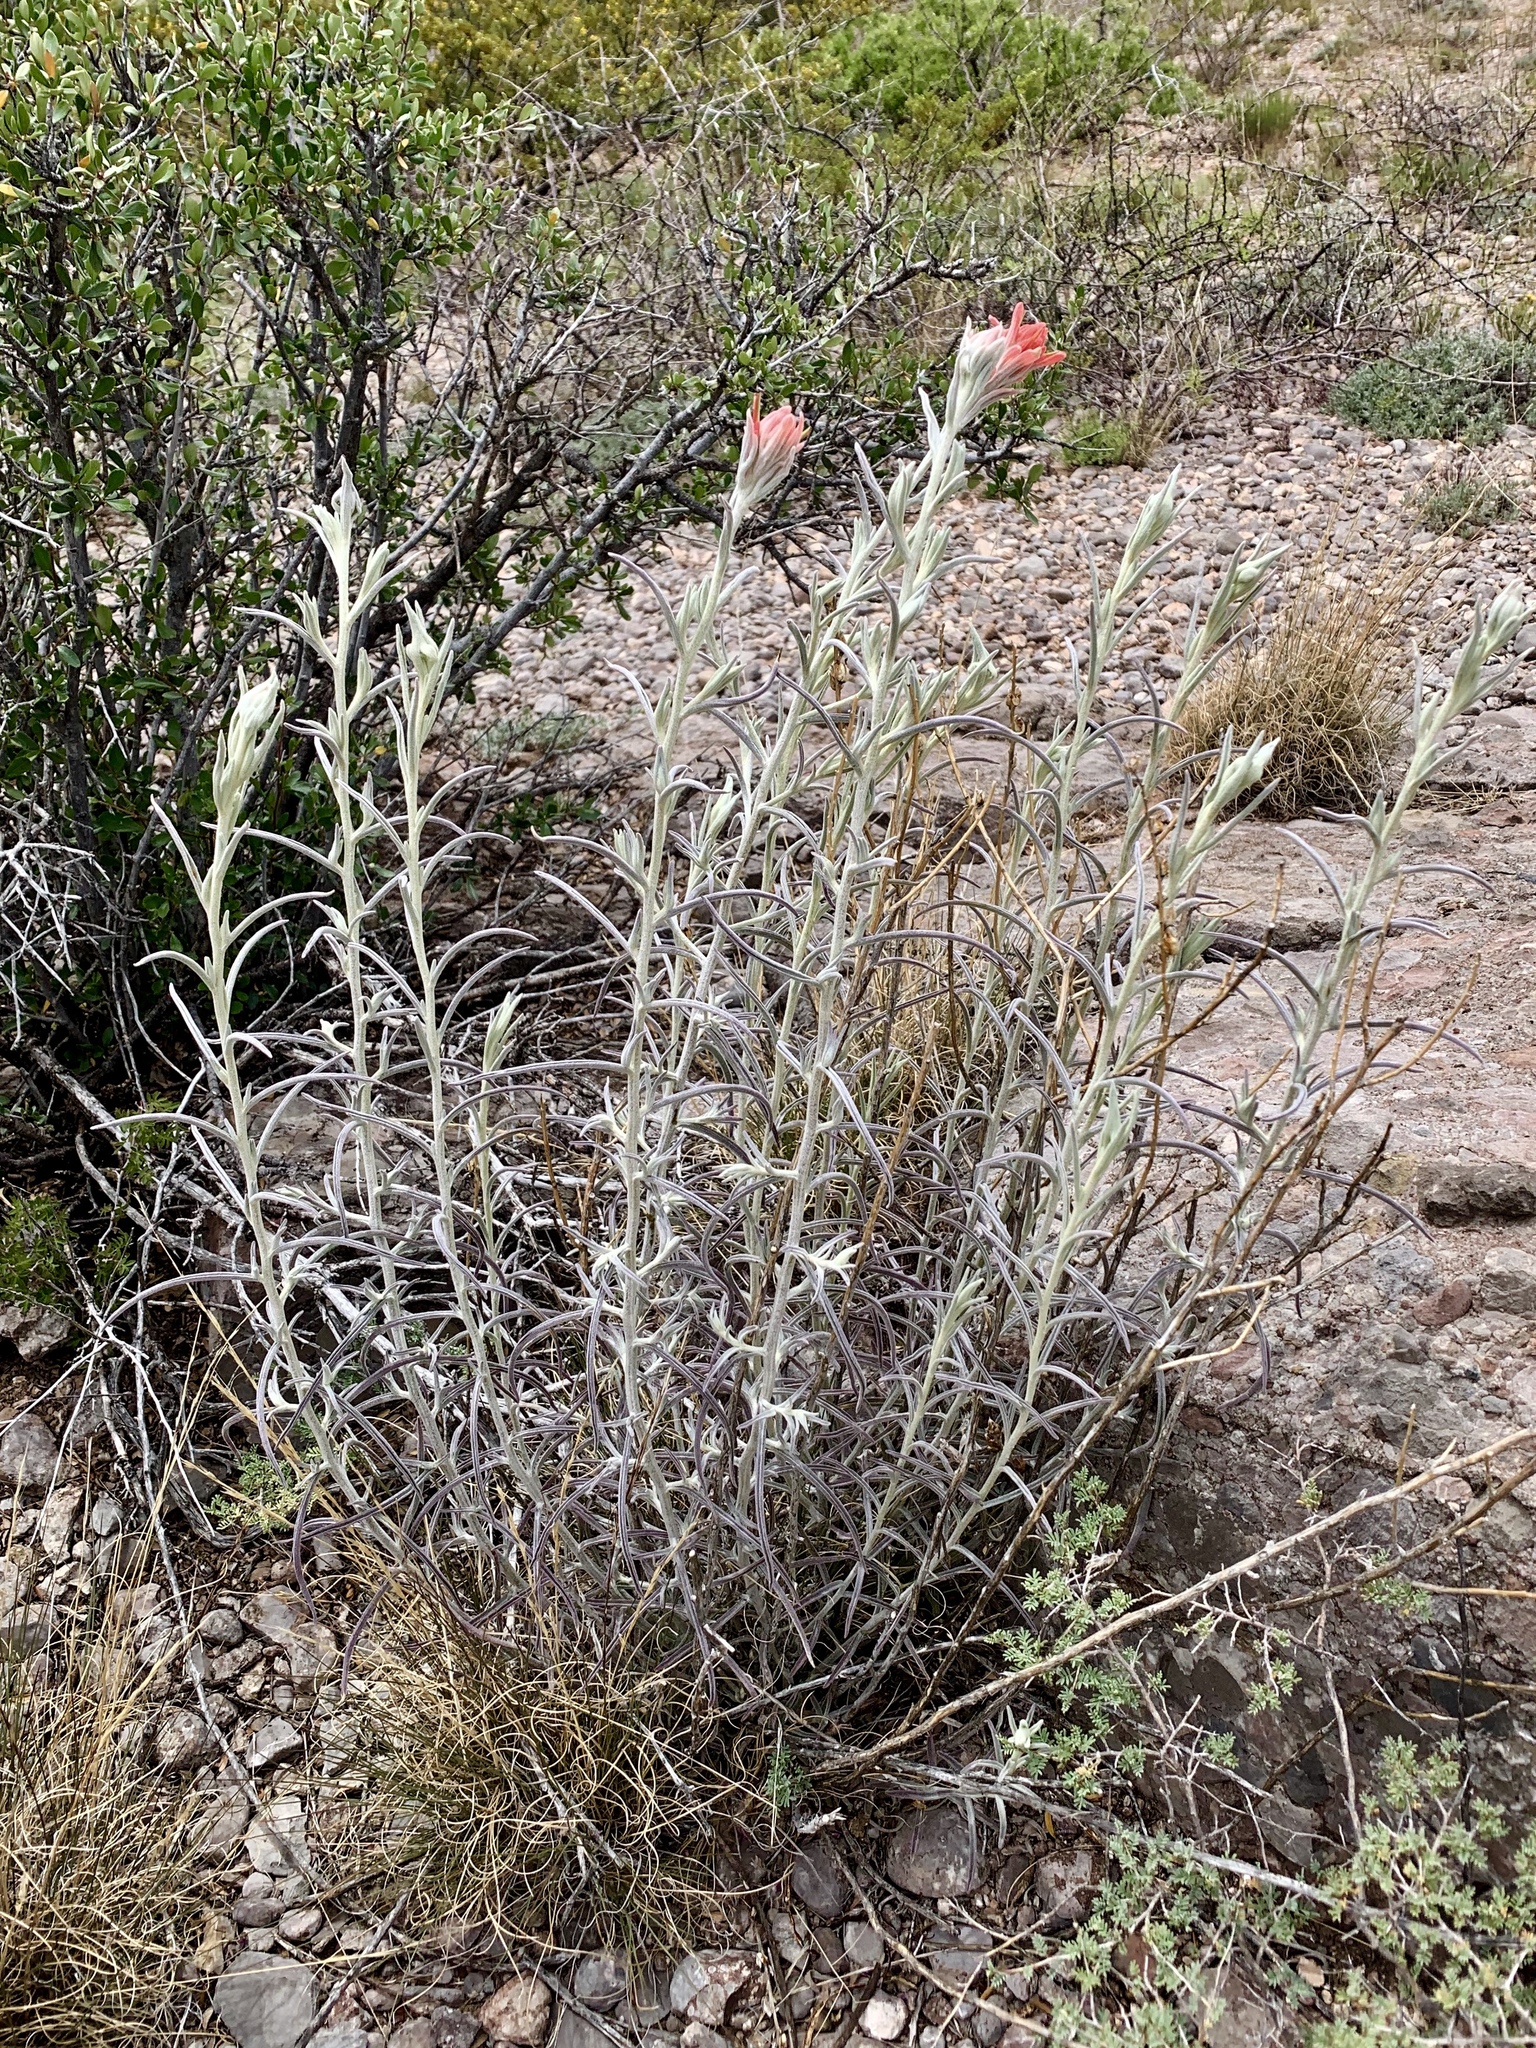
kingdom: Plantae
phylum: Tracheophyta
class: Magnoliopsida
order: Lamiales
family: Orobanchaceae
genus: Castilleja
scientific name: Castilleja lanata
